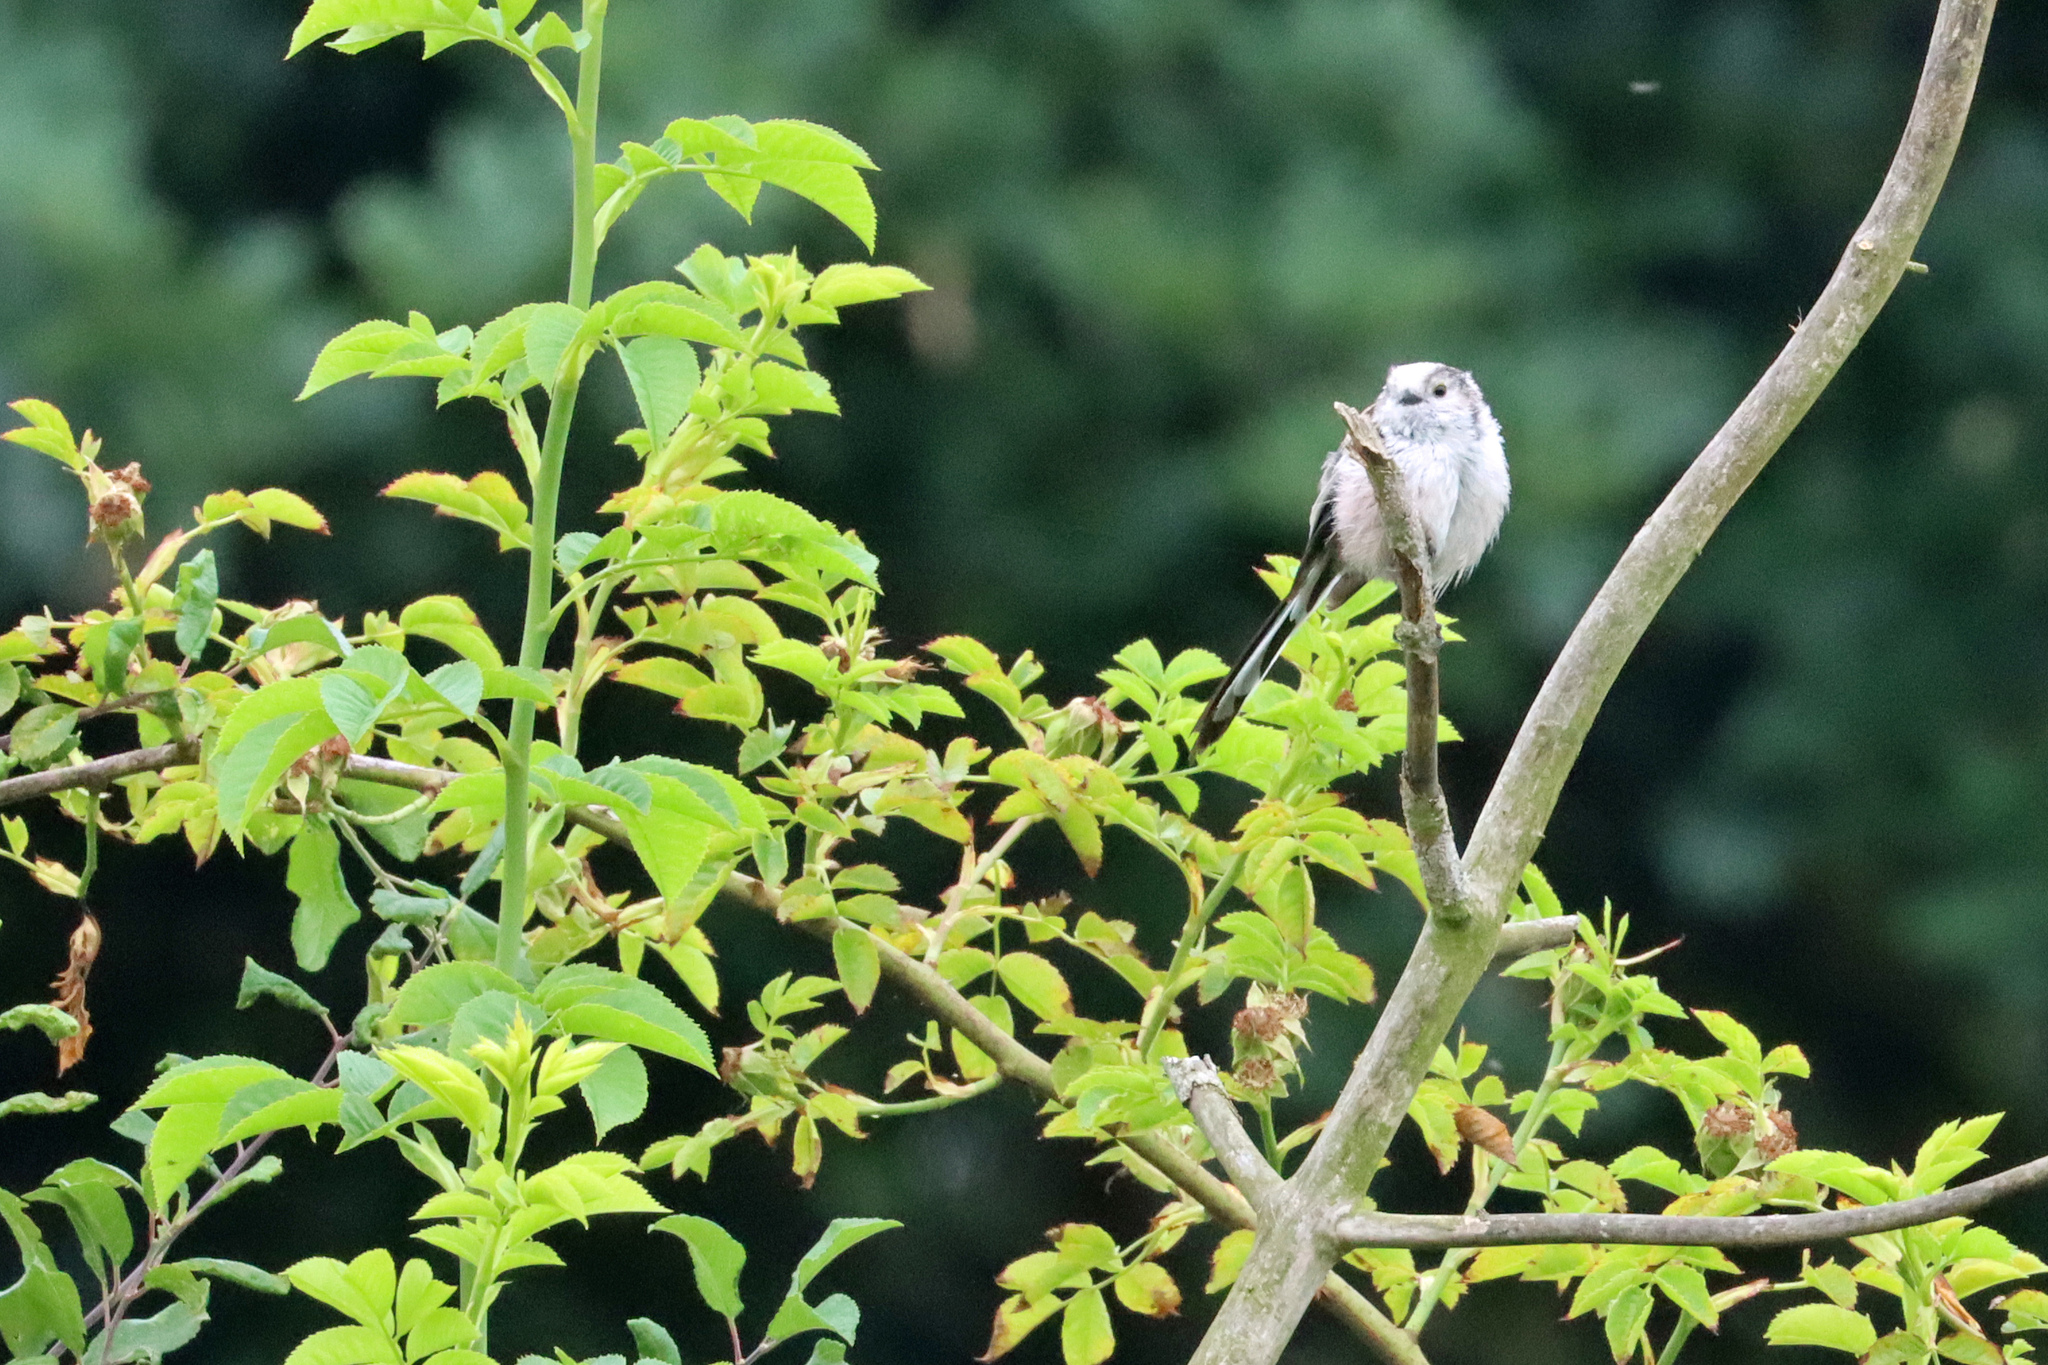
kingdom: Animalia
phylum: Chordata
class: Aves
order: Passeriformes
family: Aegithalidae
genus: Aegithalos
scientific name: Aegithalos caudatus
